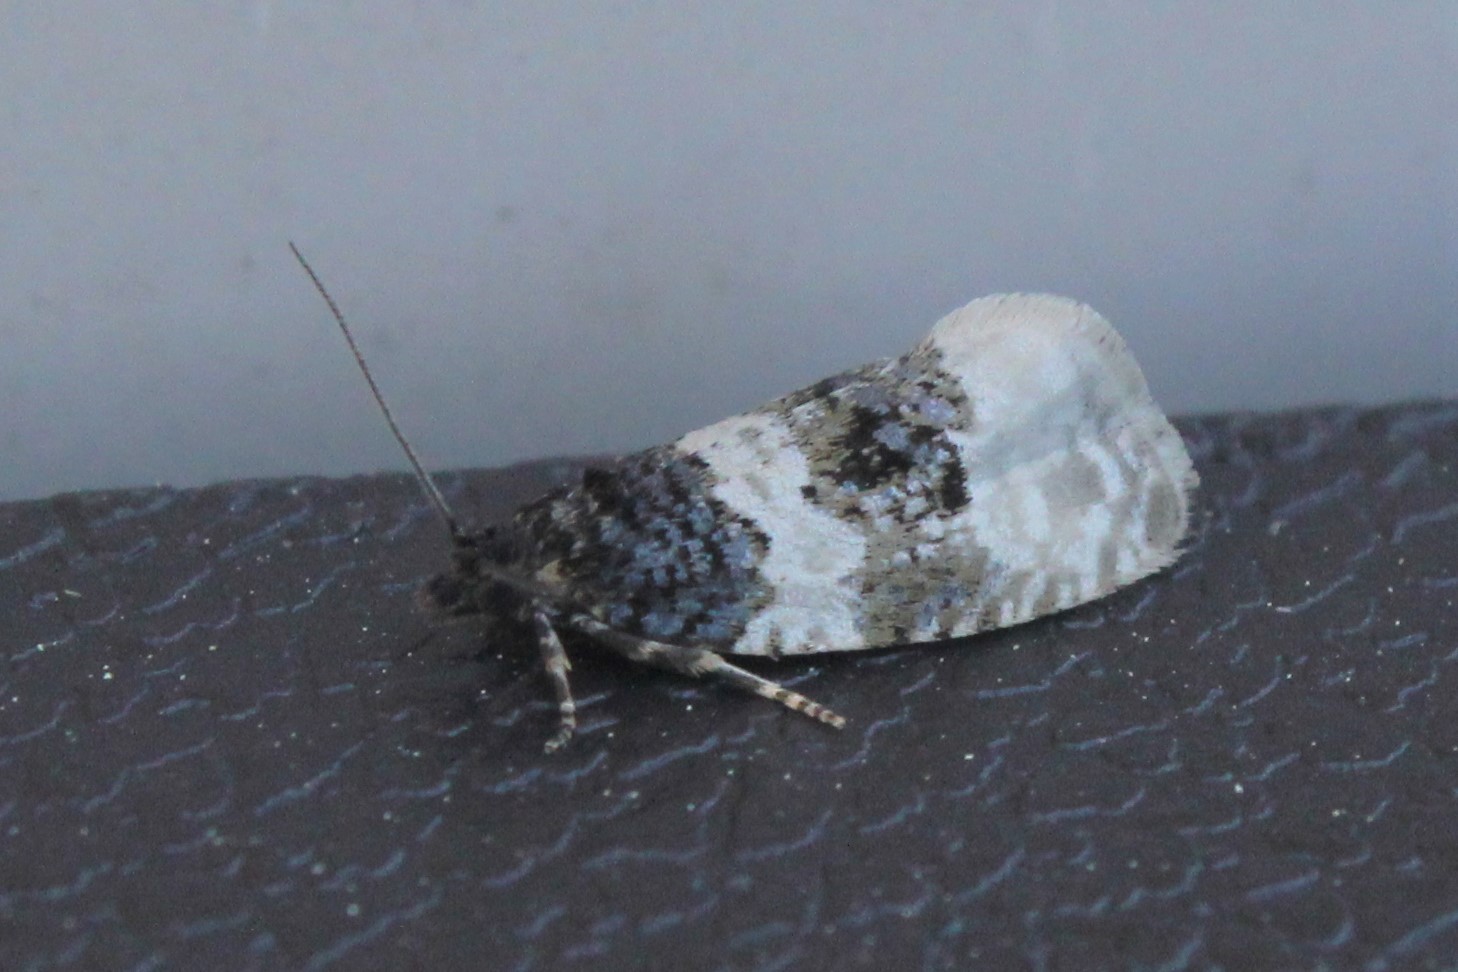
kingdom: Animalia
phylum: Arthropoda
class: Insecta
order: Lepidoptera
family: Tortricidae
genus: Olethreutes
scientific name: Olethreutes bipartitana
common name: Divided olethreutes moth
